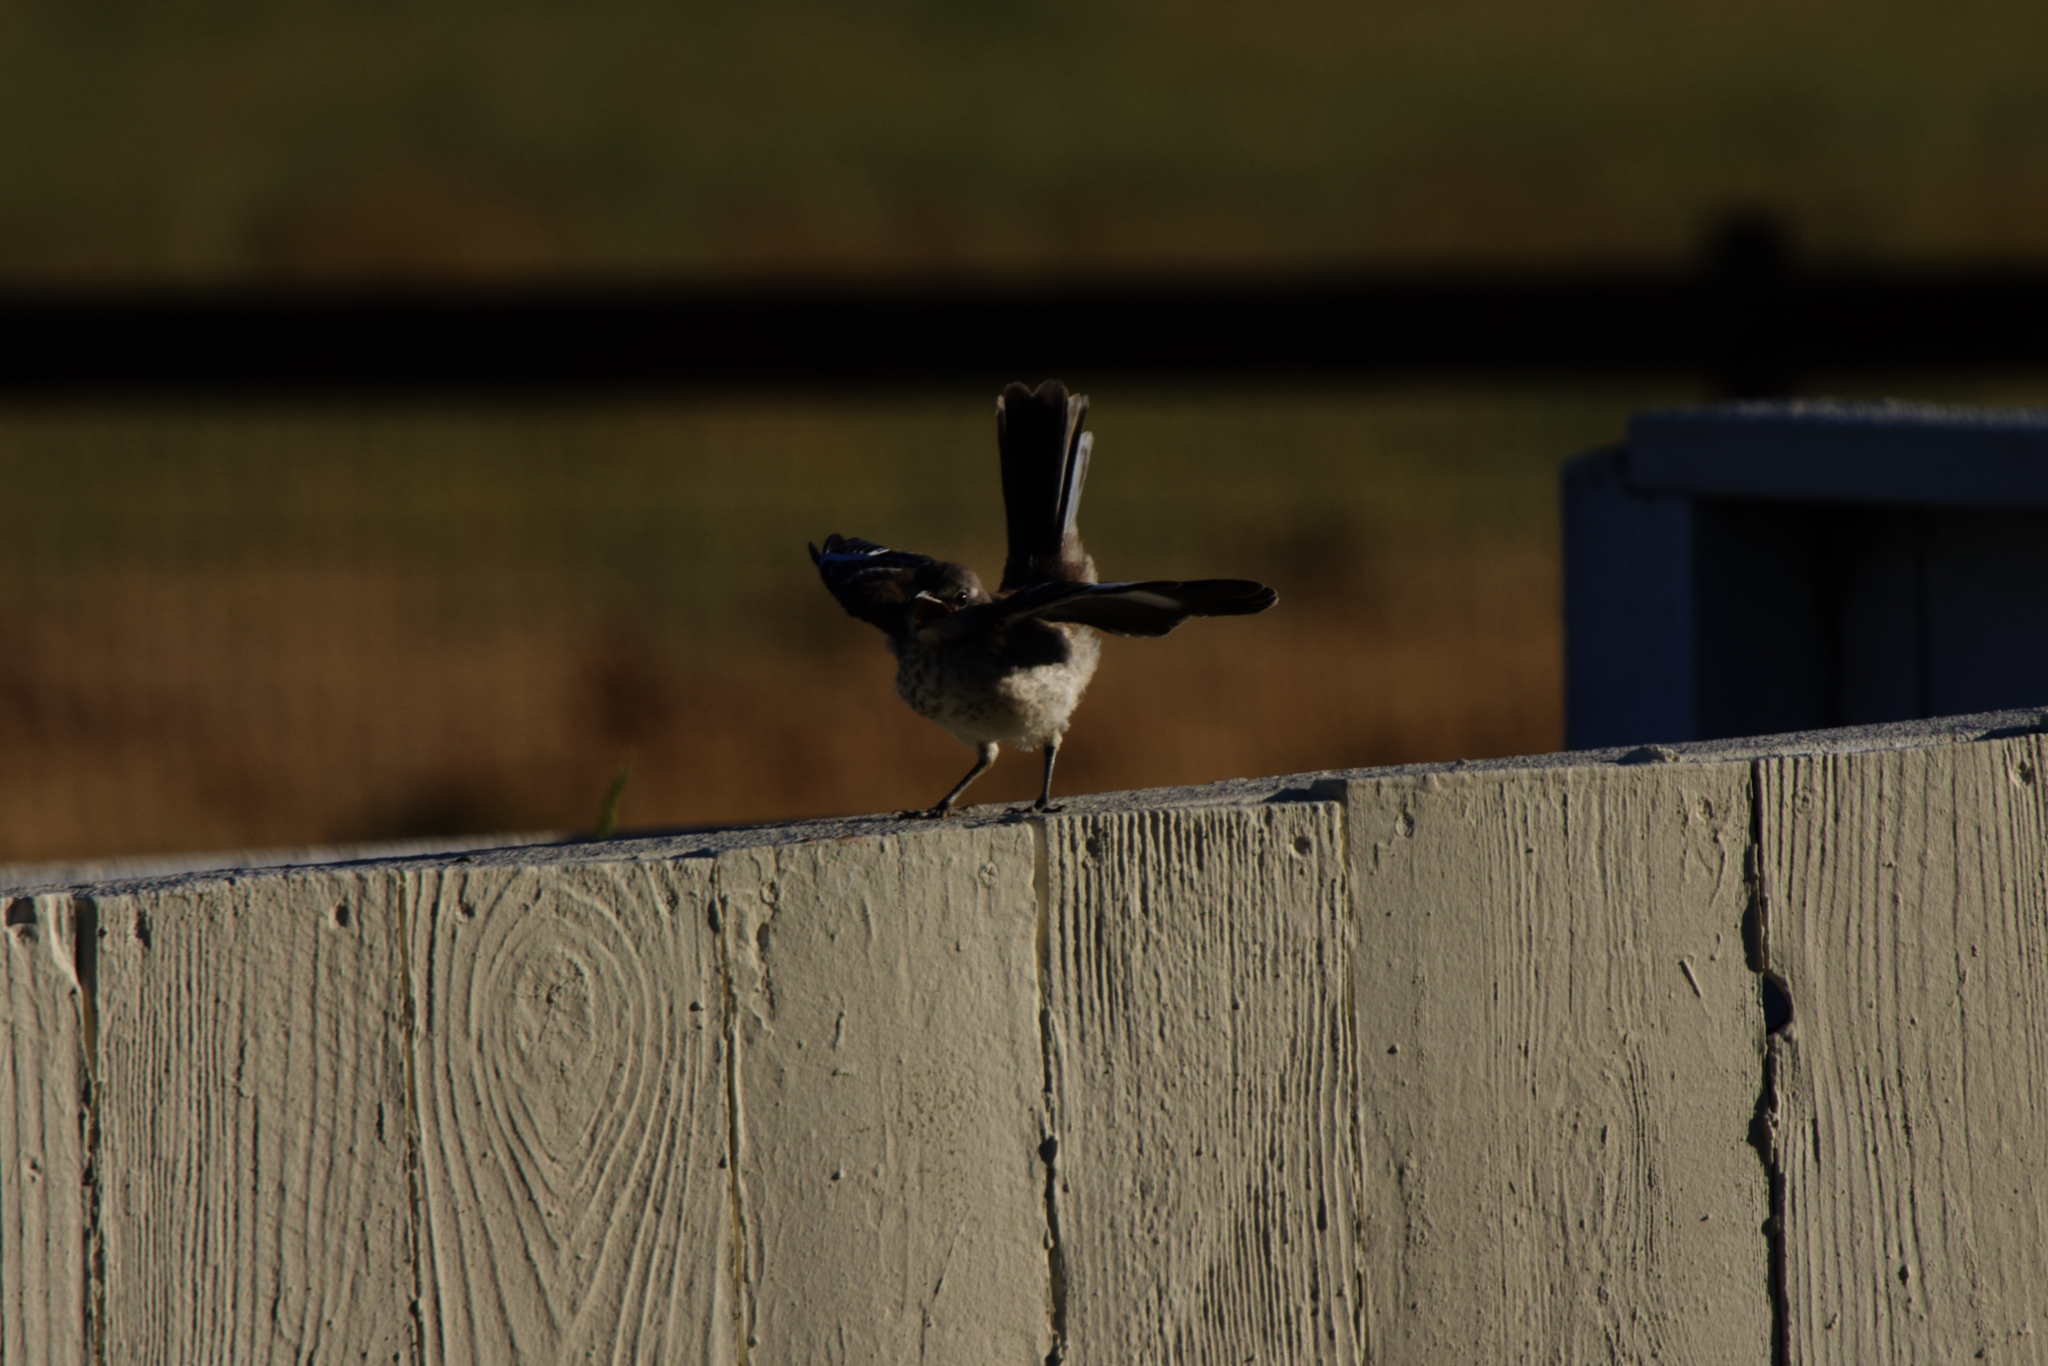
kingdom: Animalia
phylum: Chordata
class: Aves
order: Passeriformes
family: Mimidae
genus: Mimus
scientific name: Mimus polyglottos
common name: Northern mockingbird
